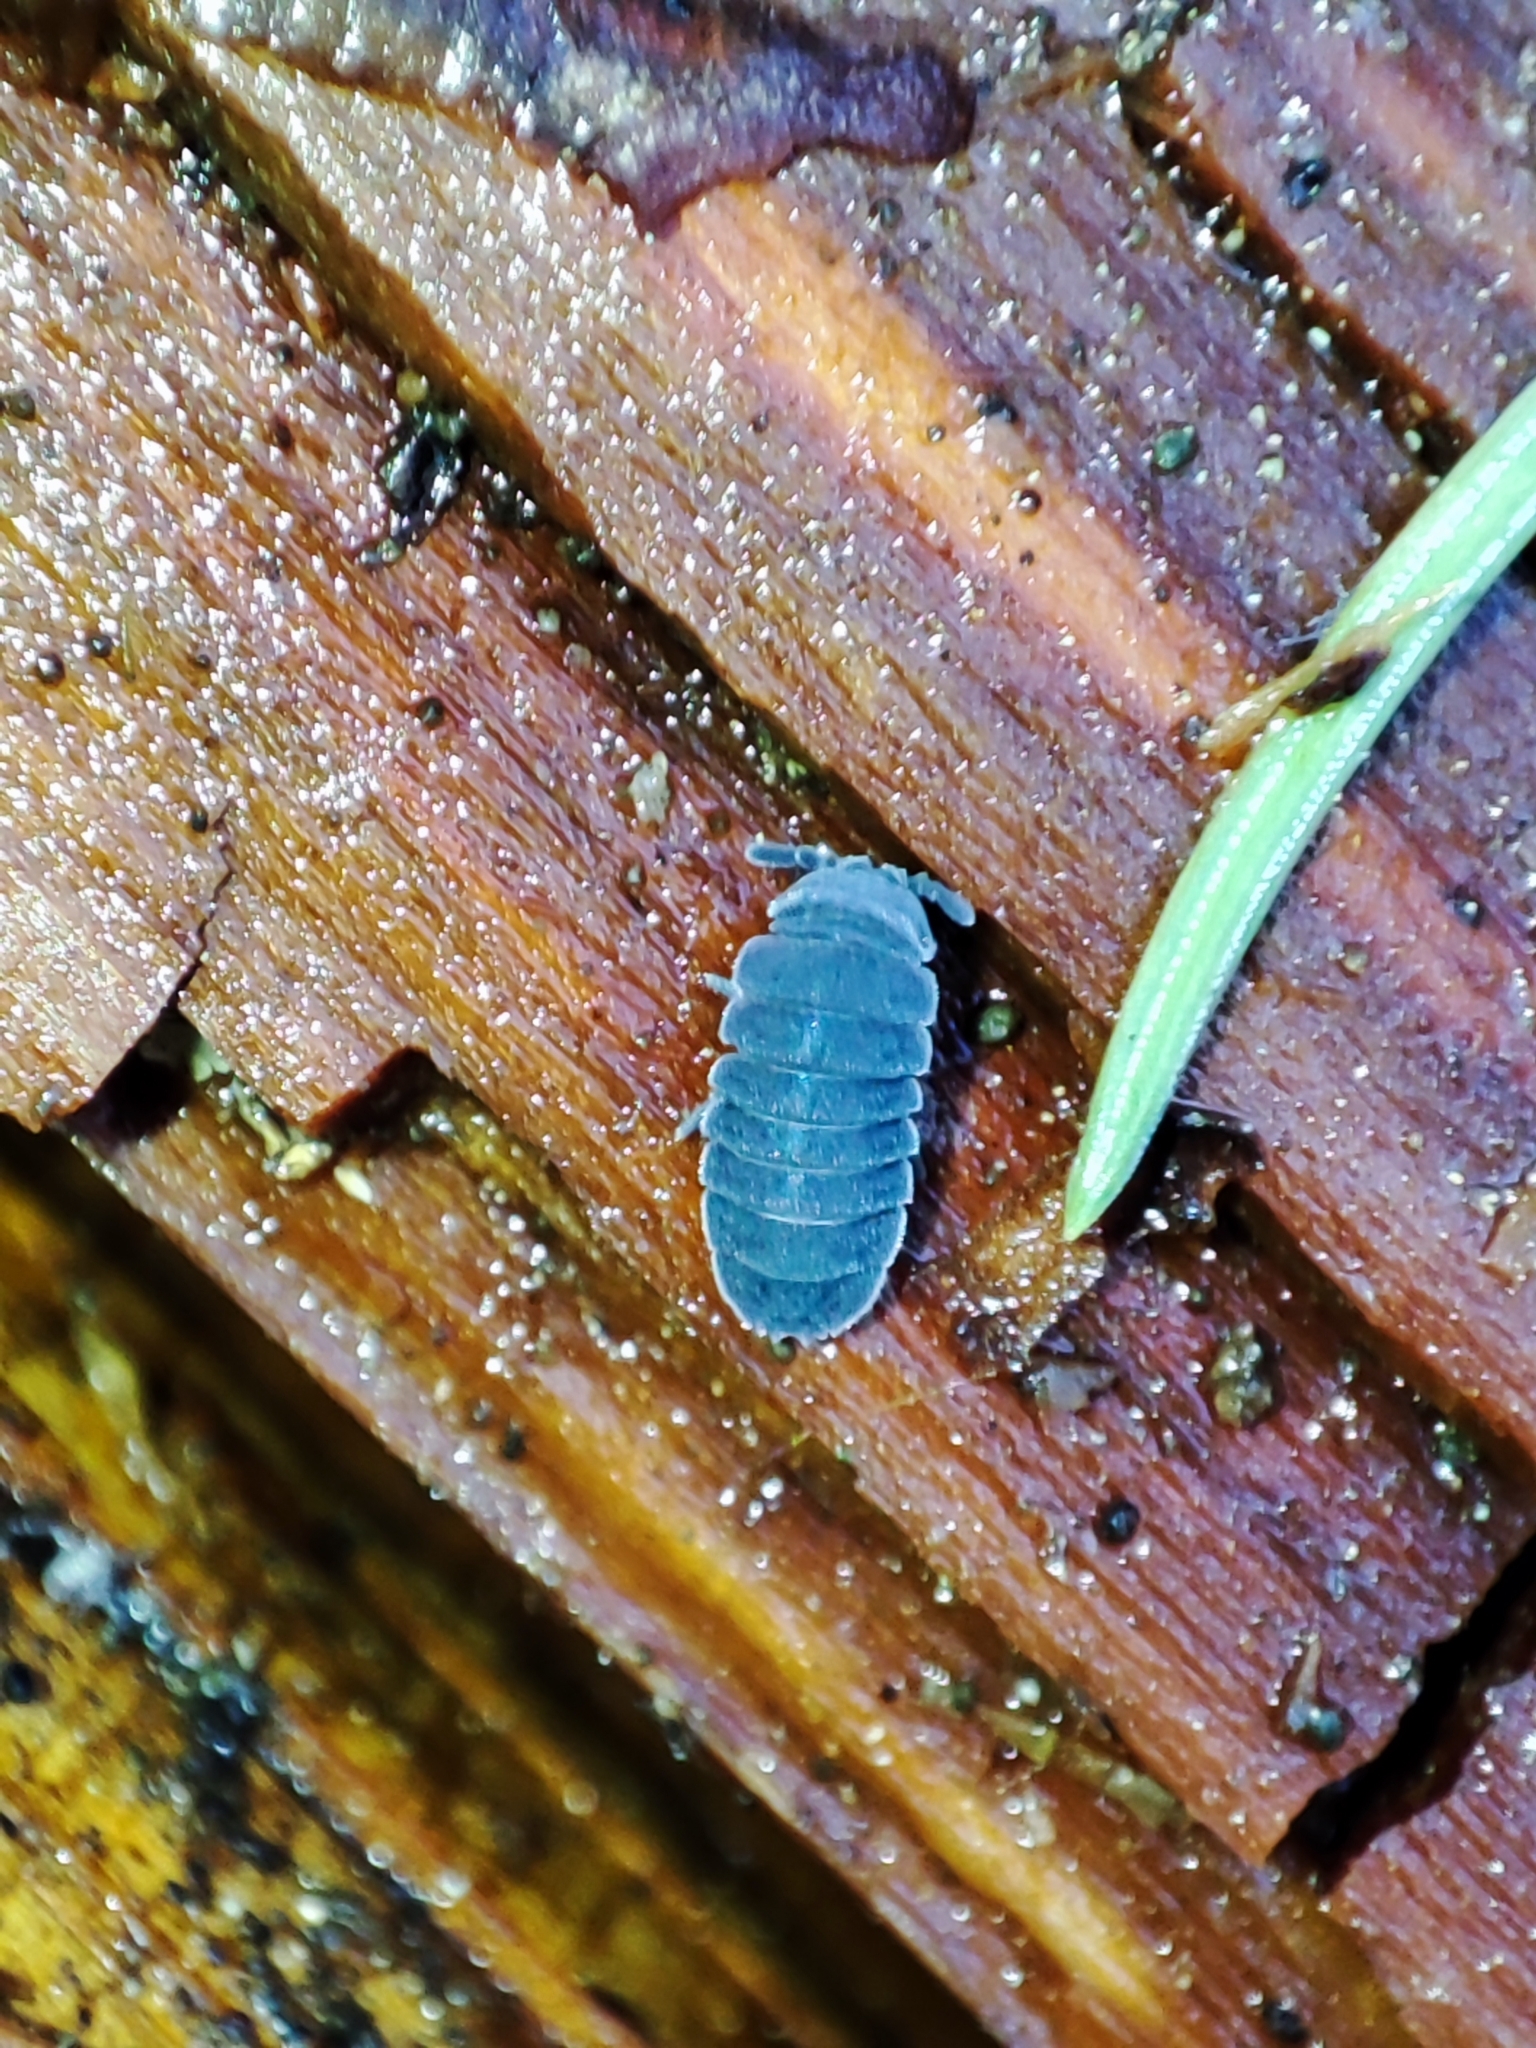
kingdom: Animalia
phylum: Arthropoda
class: Collembola
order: Poduromorpha
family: Onychiuridae
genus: Tetrodontophora
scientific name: Tetrodontophora bielanensis
